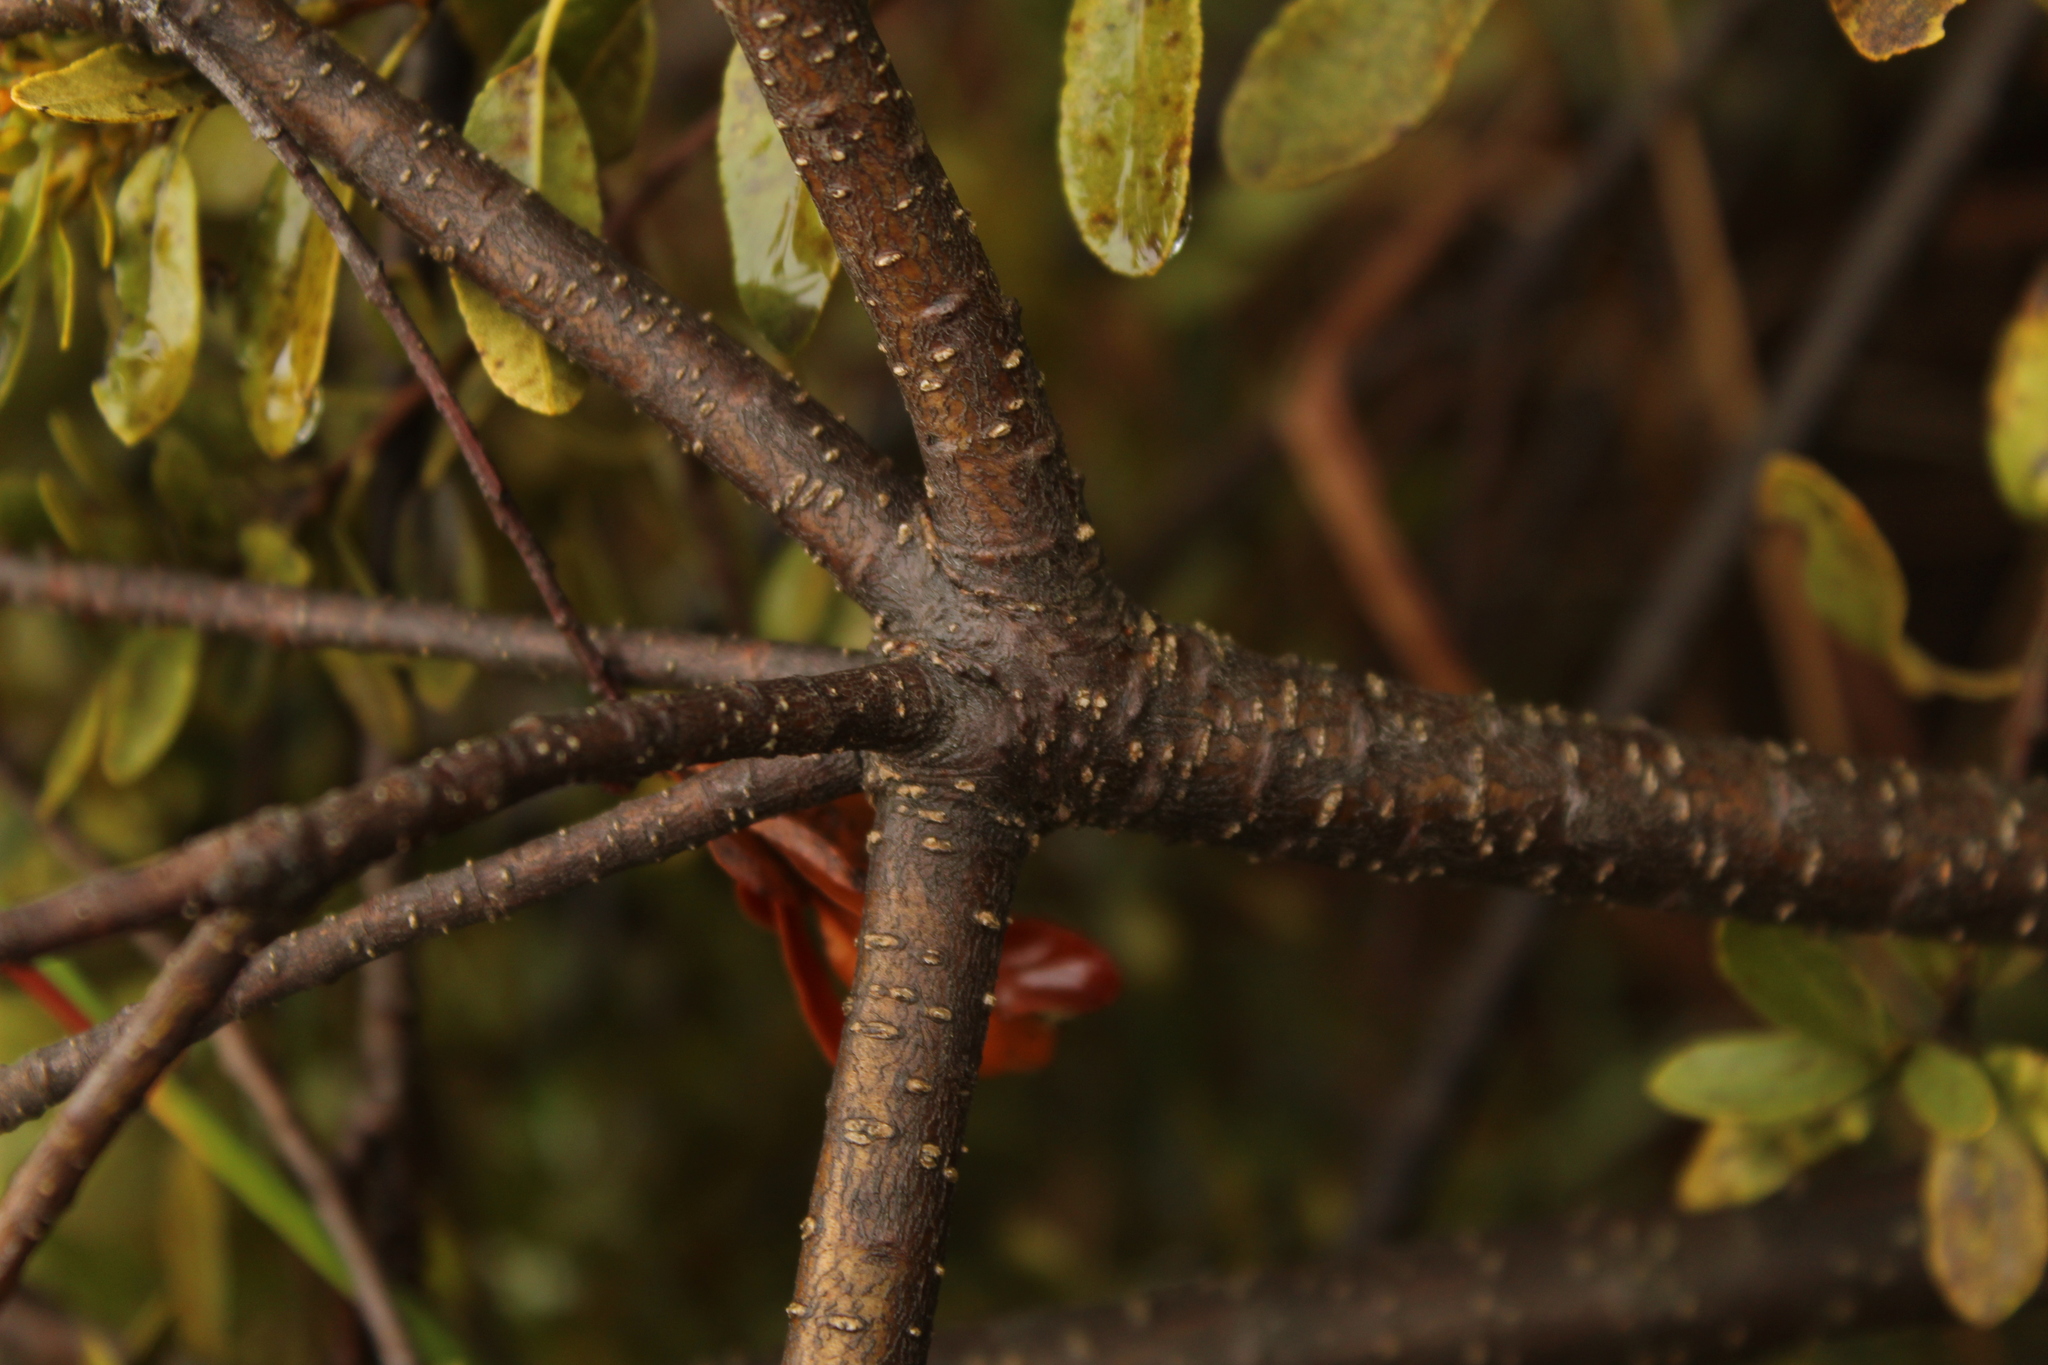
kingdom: Plantae
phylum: Tracheophyta
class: Magnoliopsida
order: Fagales
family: Myricaceae
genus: Morella
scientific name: Morella parvifolia
